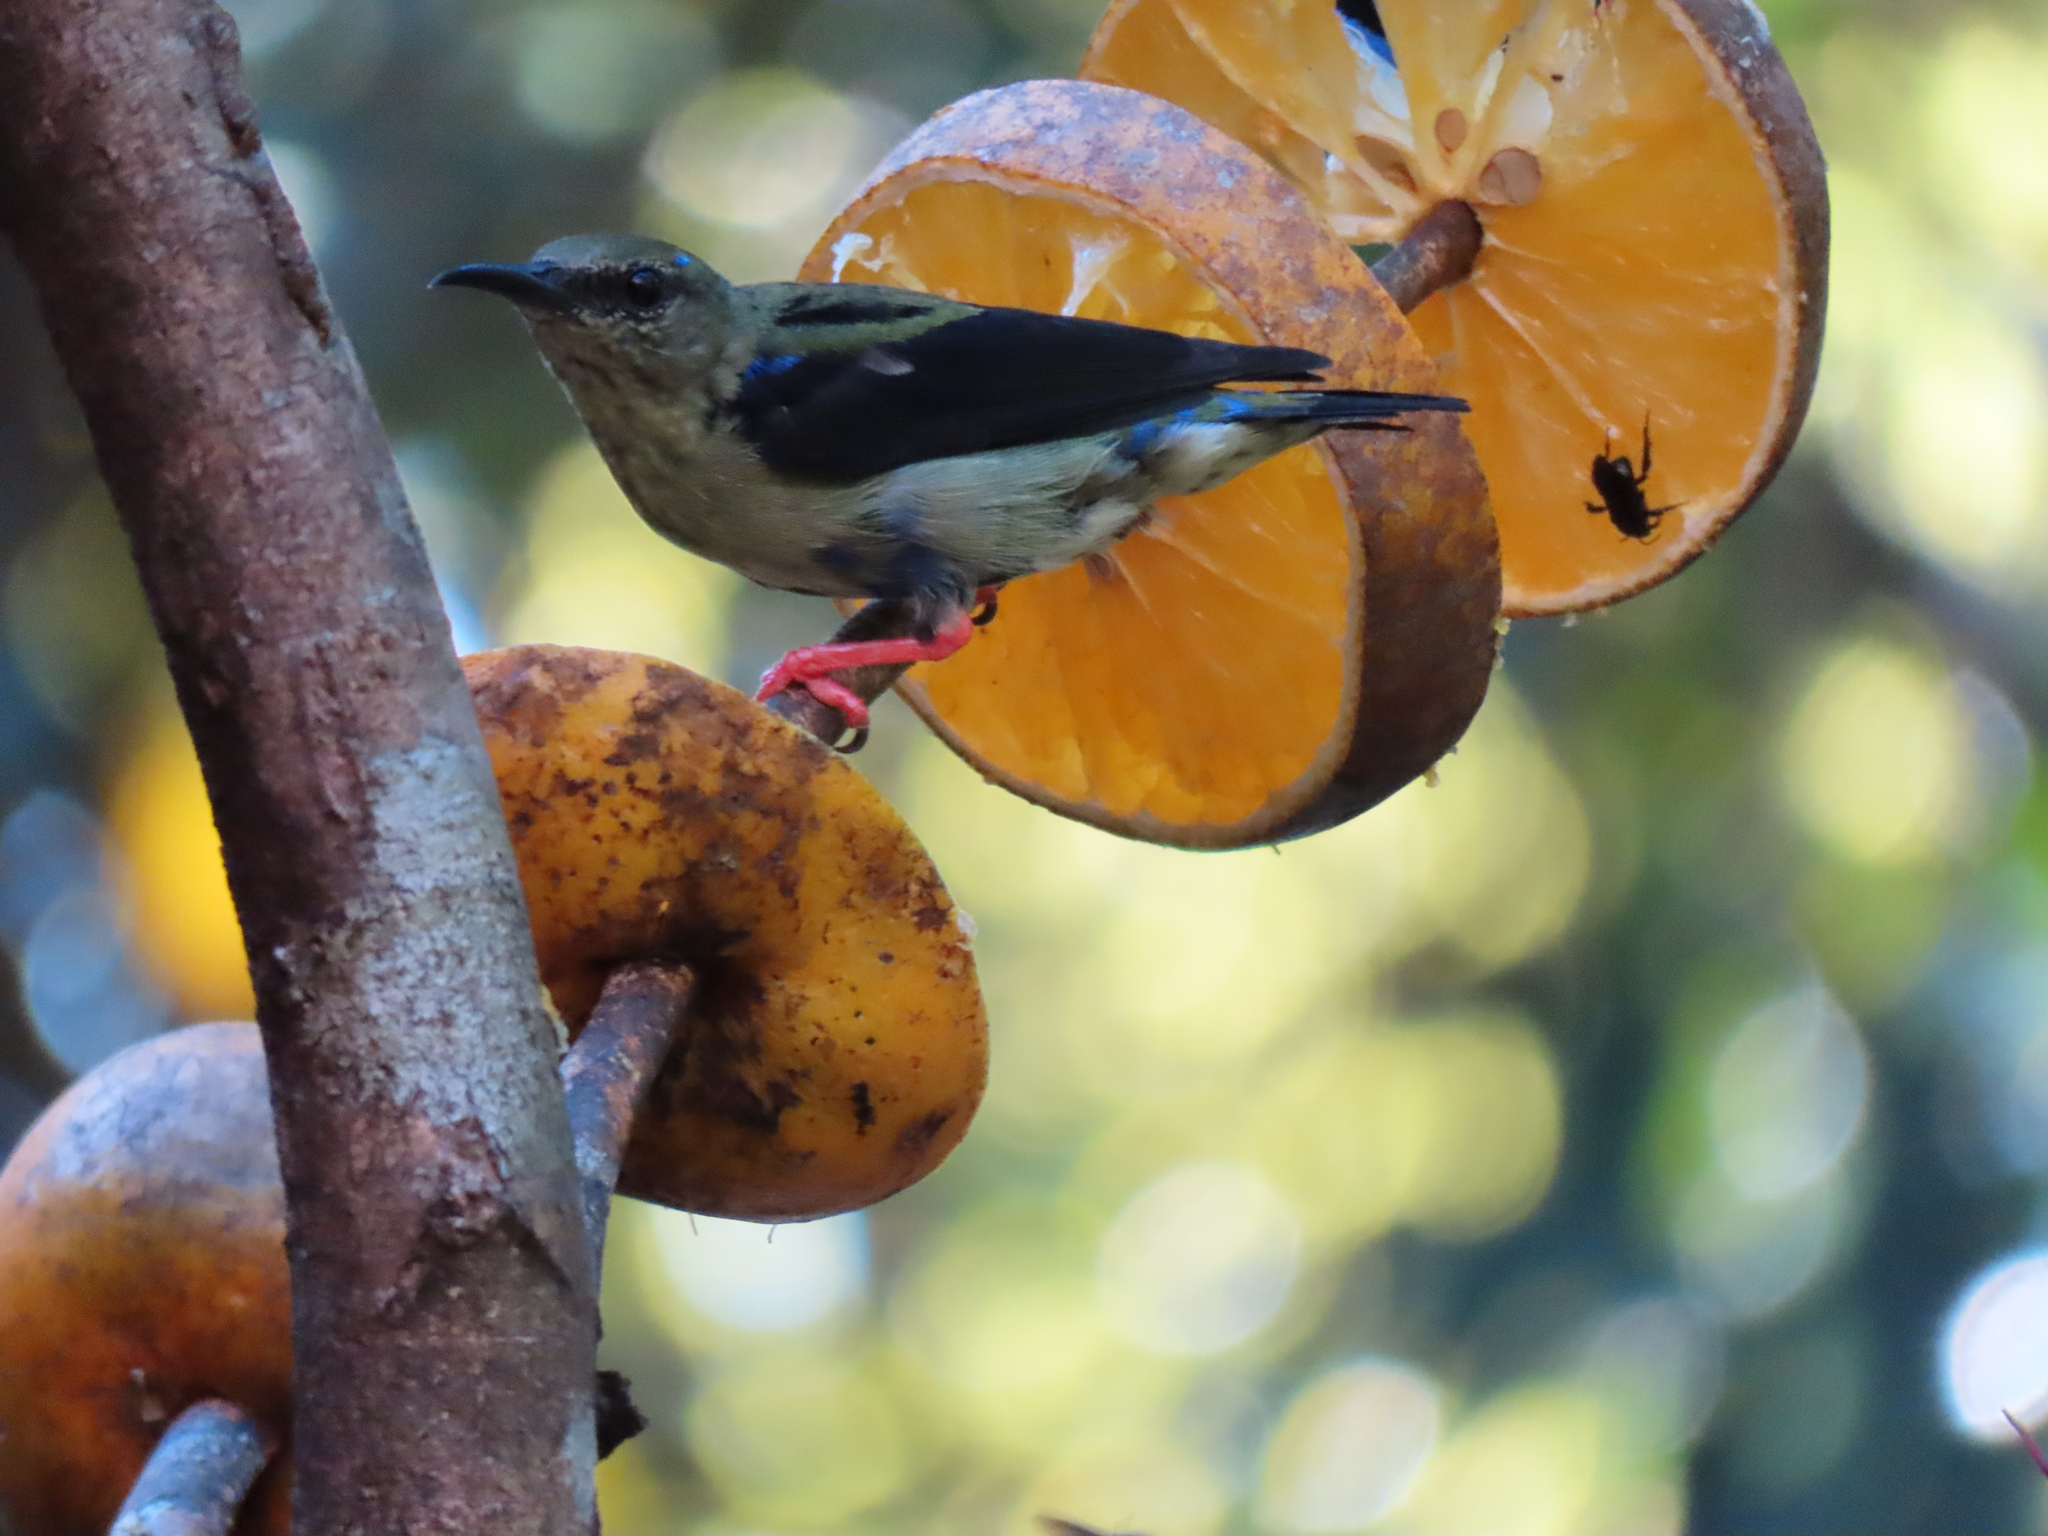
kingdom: Animalia
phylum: Chordata
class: Aves
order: Passeriformes
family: Thraupidae
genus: Cyanerpes
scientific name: Cyanerpes cyaneus
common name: Red-legged honeycreeper
